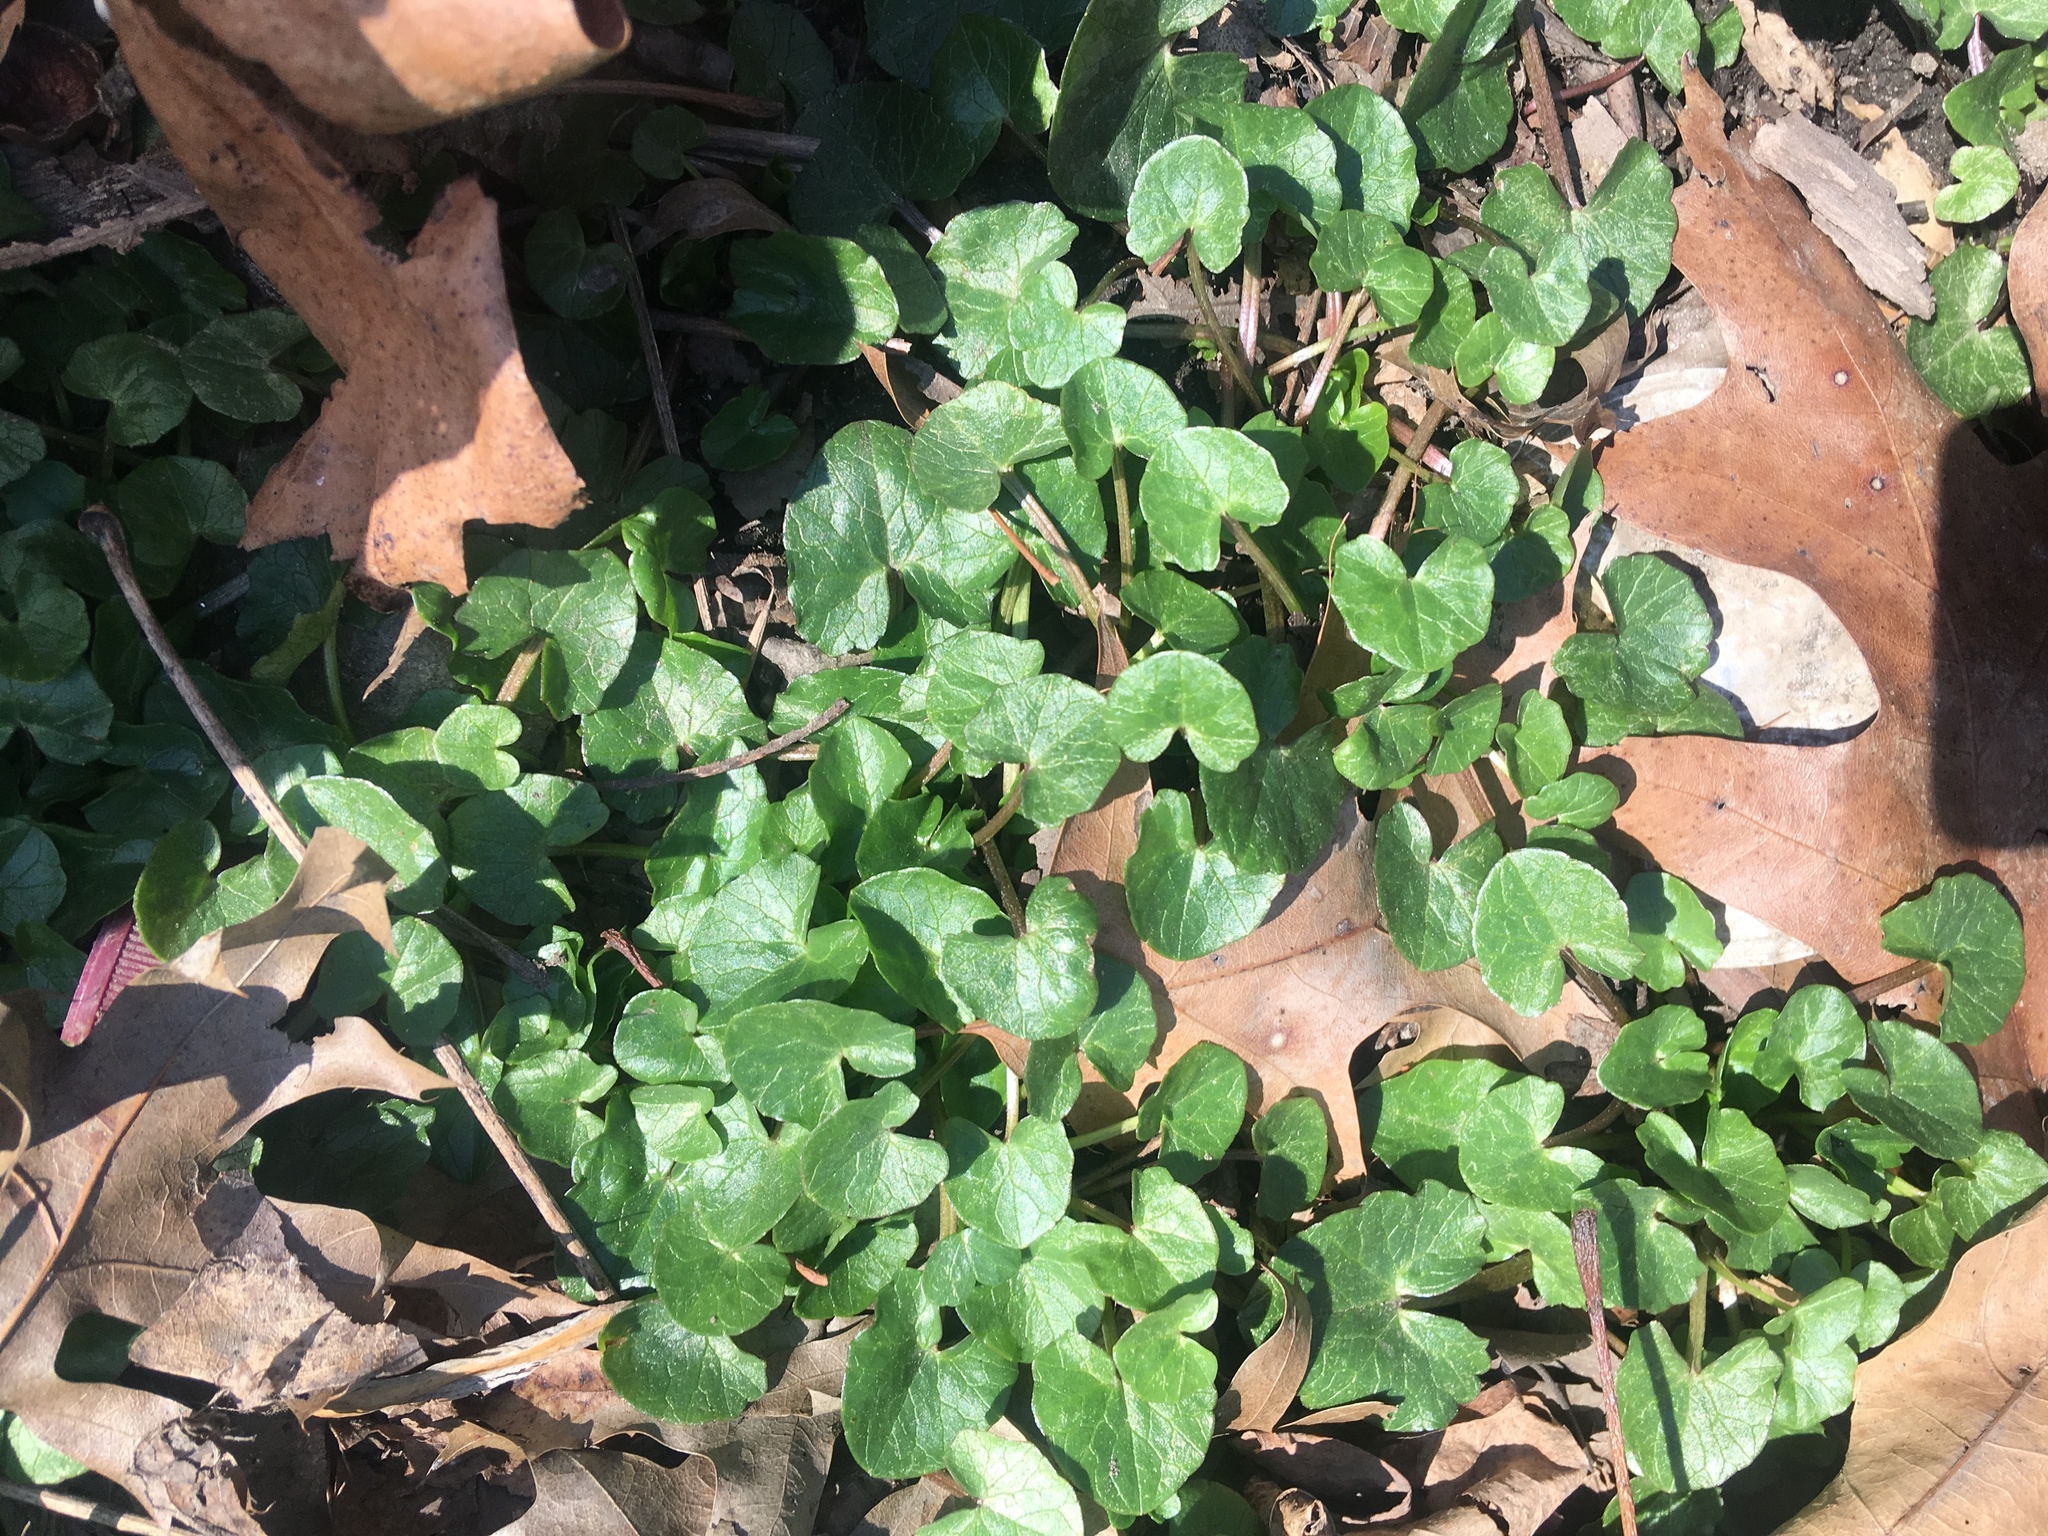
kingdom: Plantae
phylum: Tracheophyta
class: Magnoliopsida
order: Ranunculales
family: Ranunculaceae
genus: Ficaria
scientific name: Ficaria verna
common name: Lesser celandine
